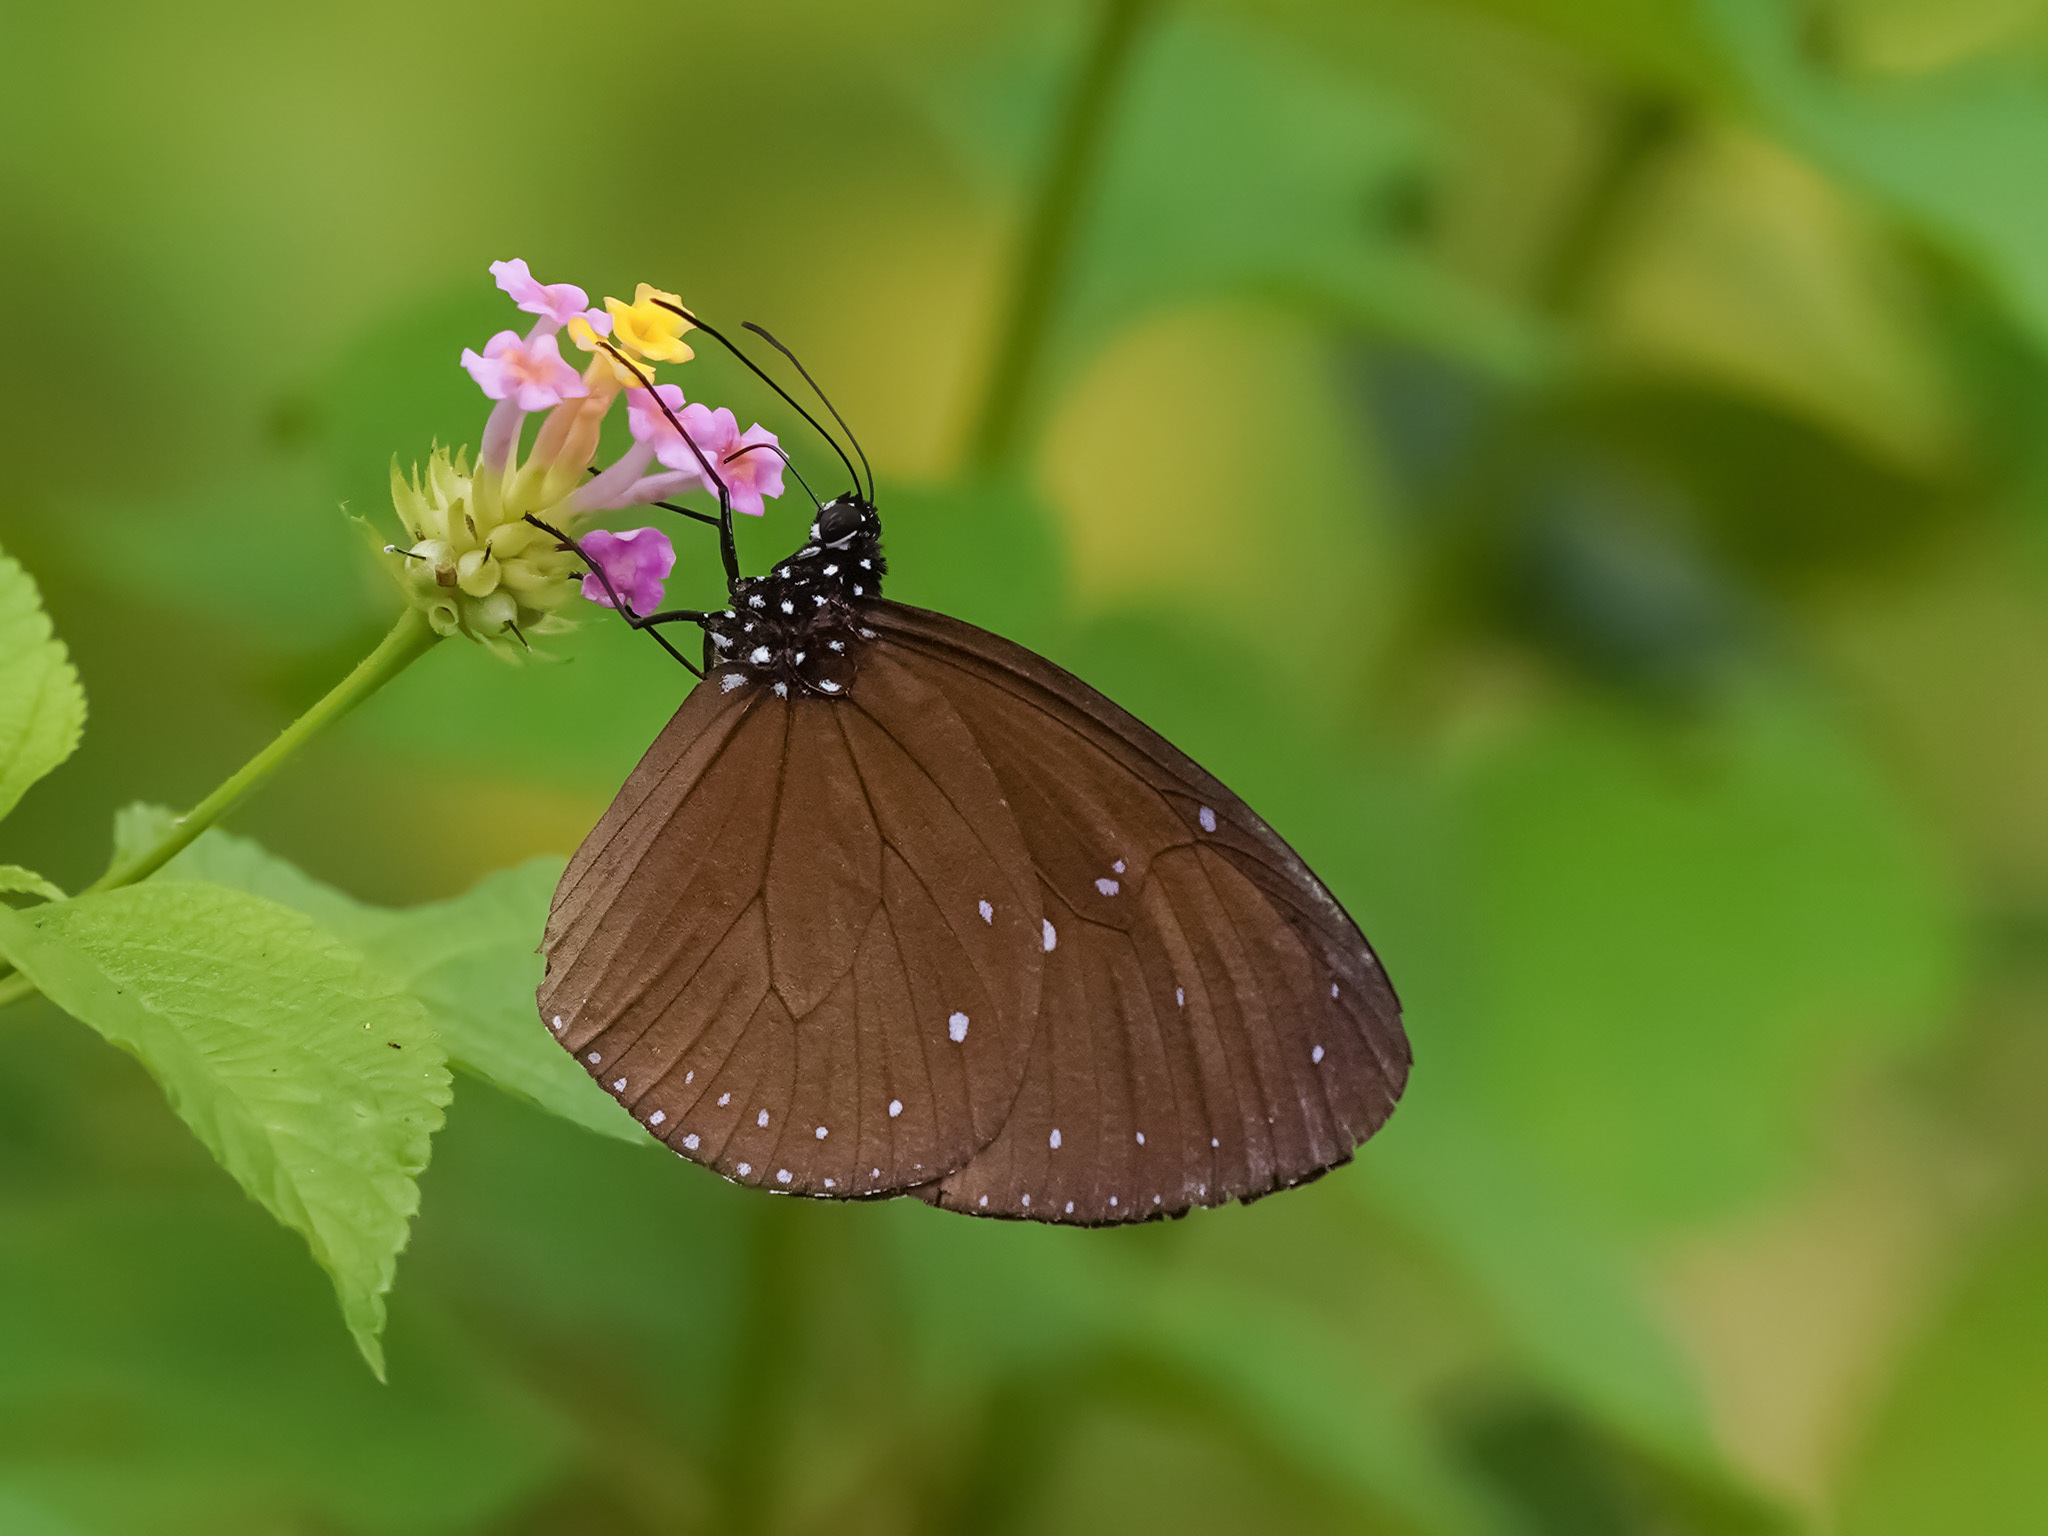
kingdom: Animalia
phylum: Arthropoda
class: Insecta
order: Lepidoptera
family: Nymphalidae
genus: Euploea
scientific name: Euploea tulliolus
